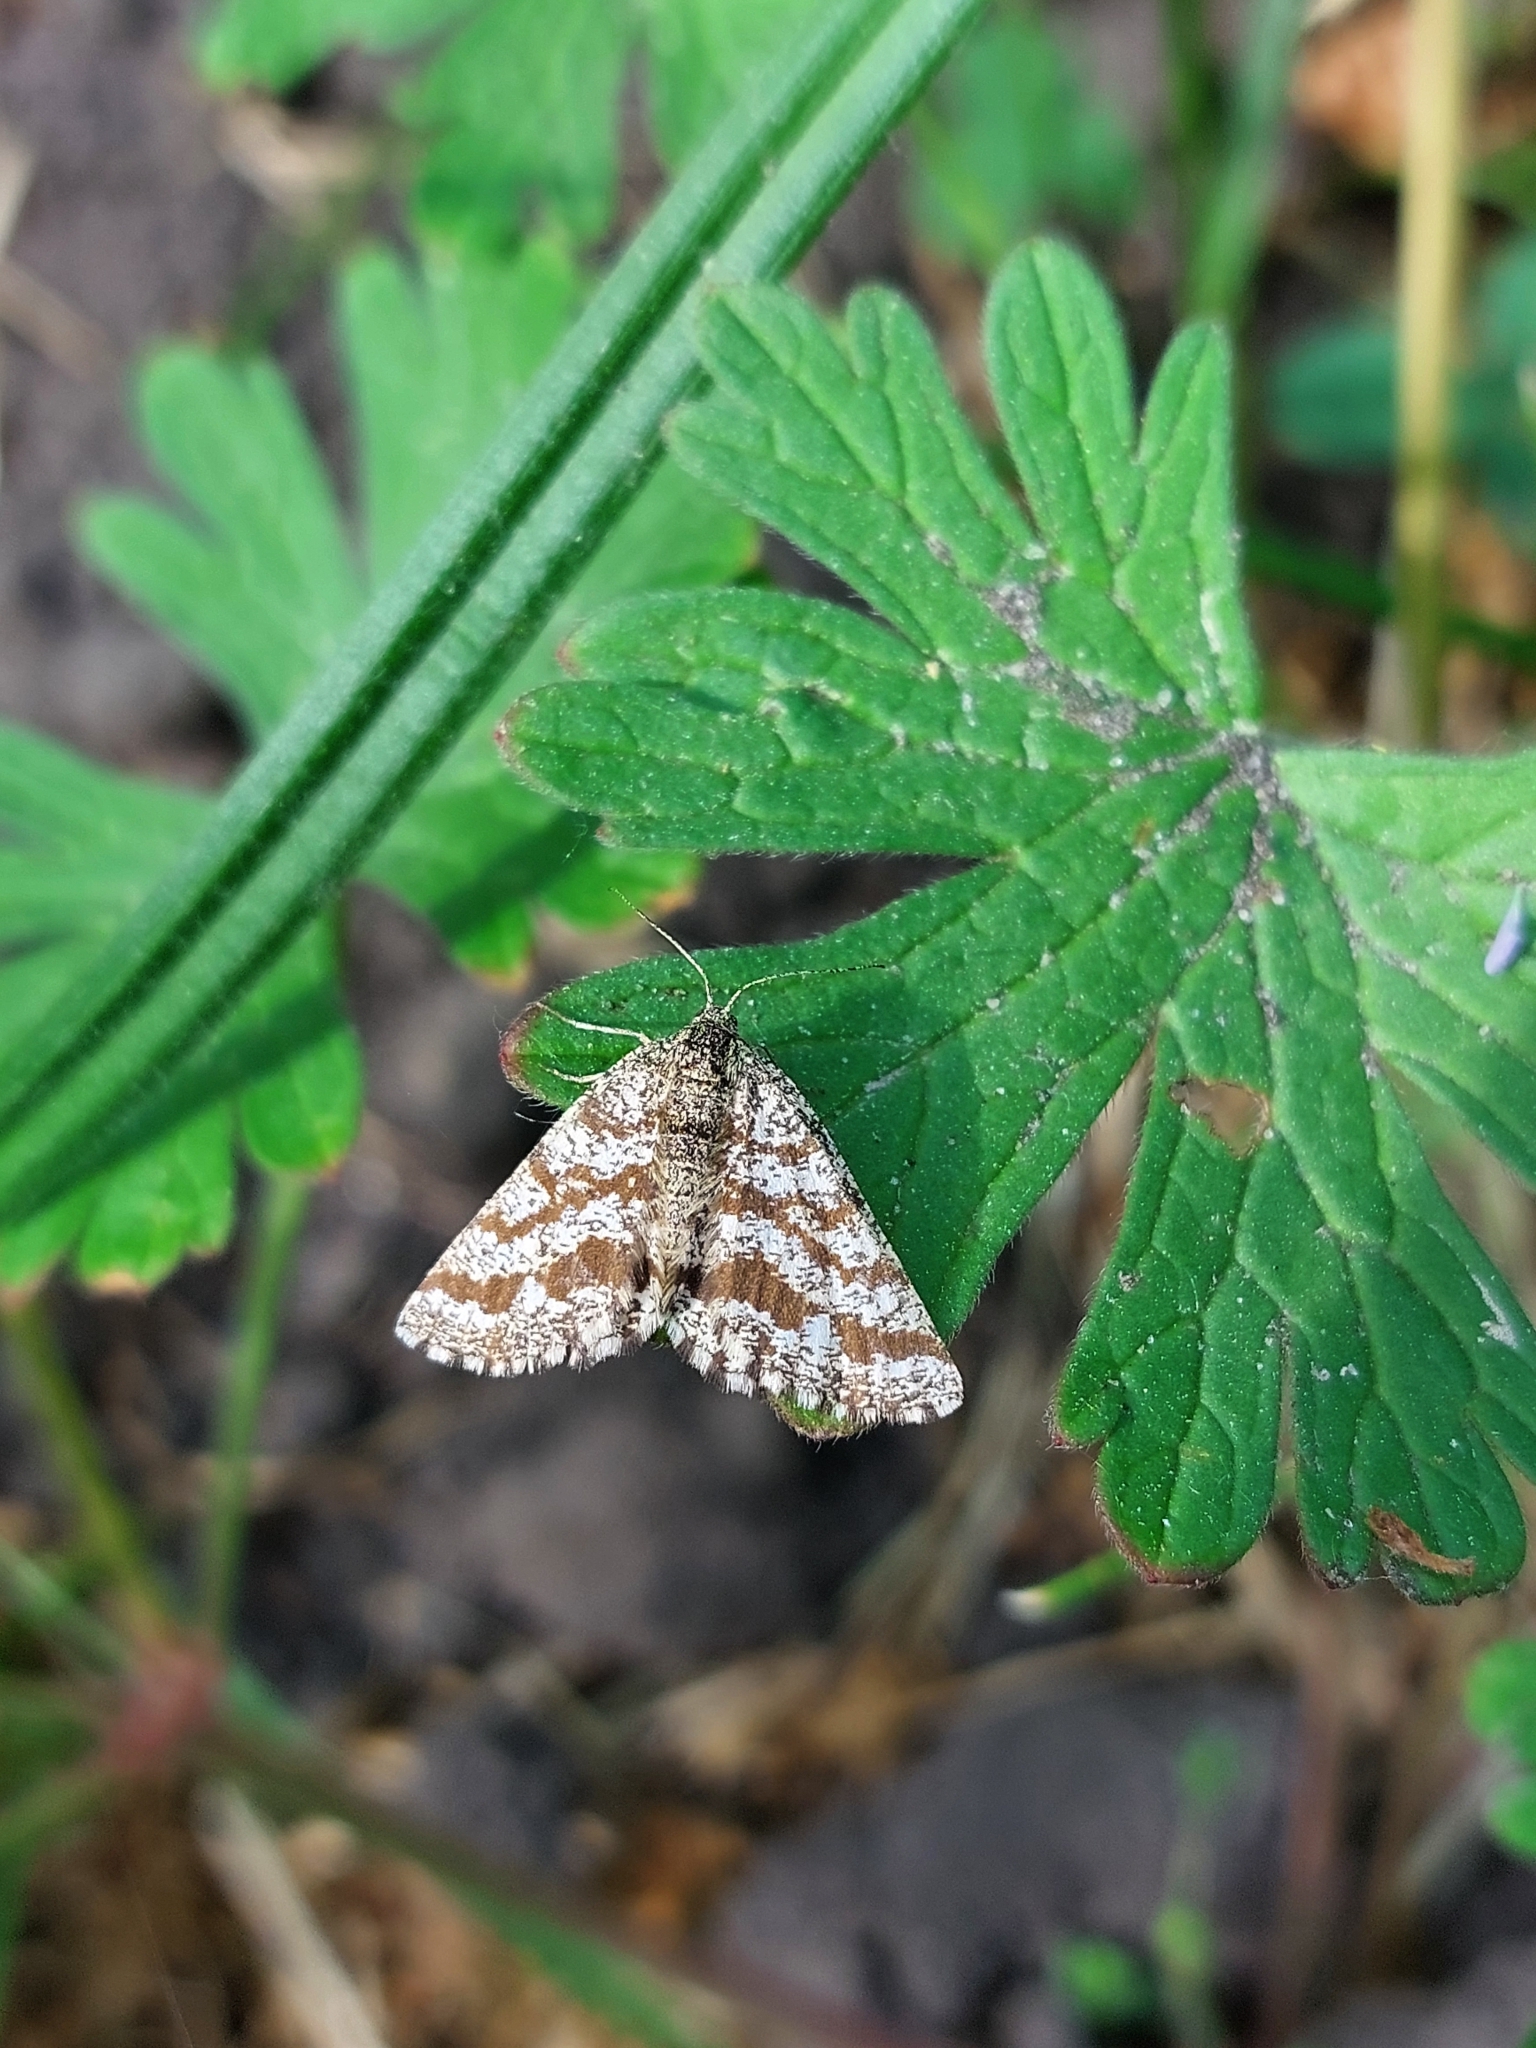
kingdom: Animalia
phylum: Arthropoda
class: Insecta
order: Lepidoptera
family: Geometridae
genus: Ematurga
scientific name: Ematurga atomaria
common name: Common heath
